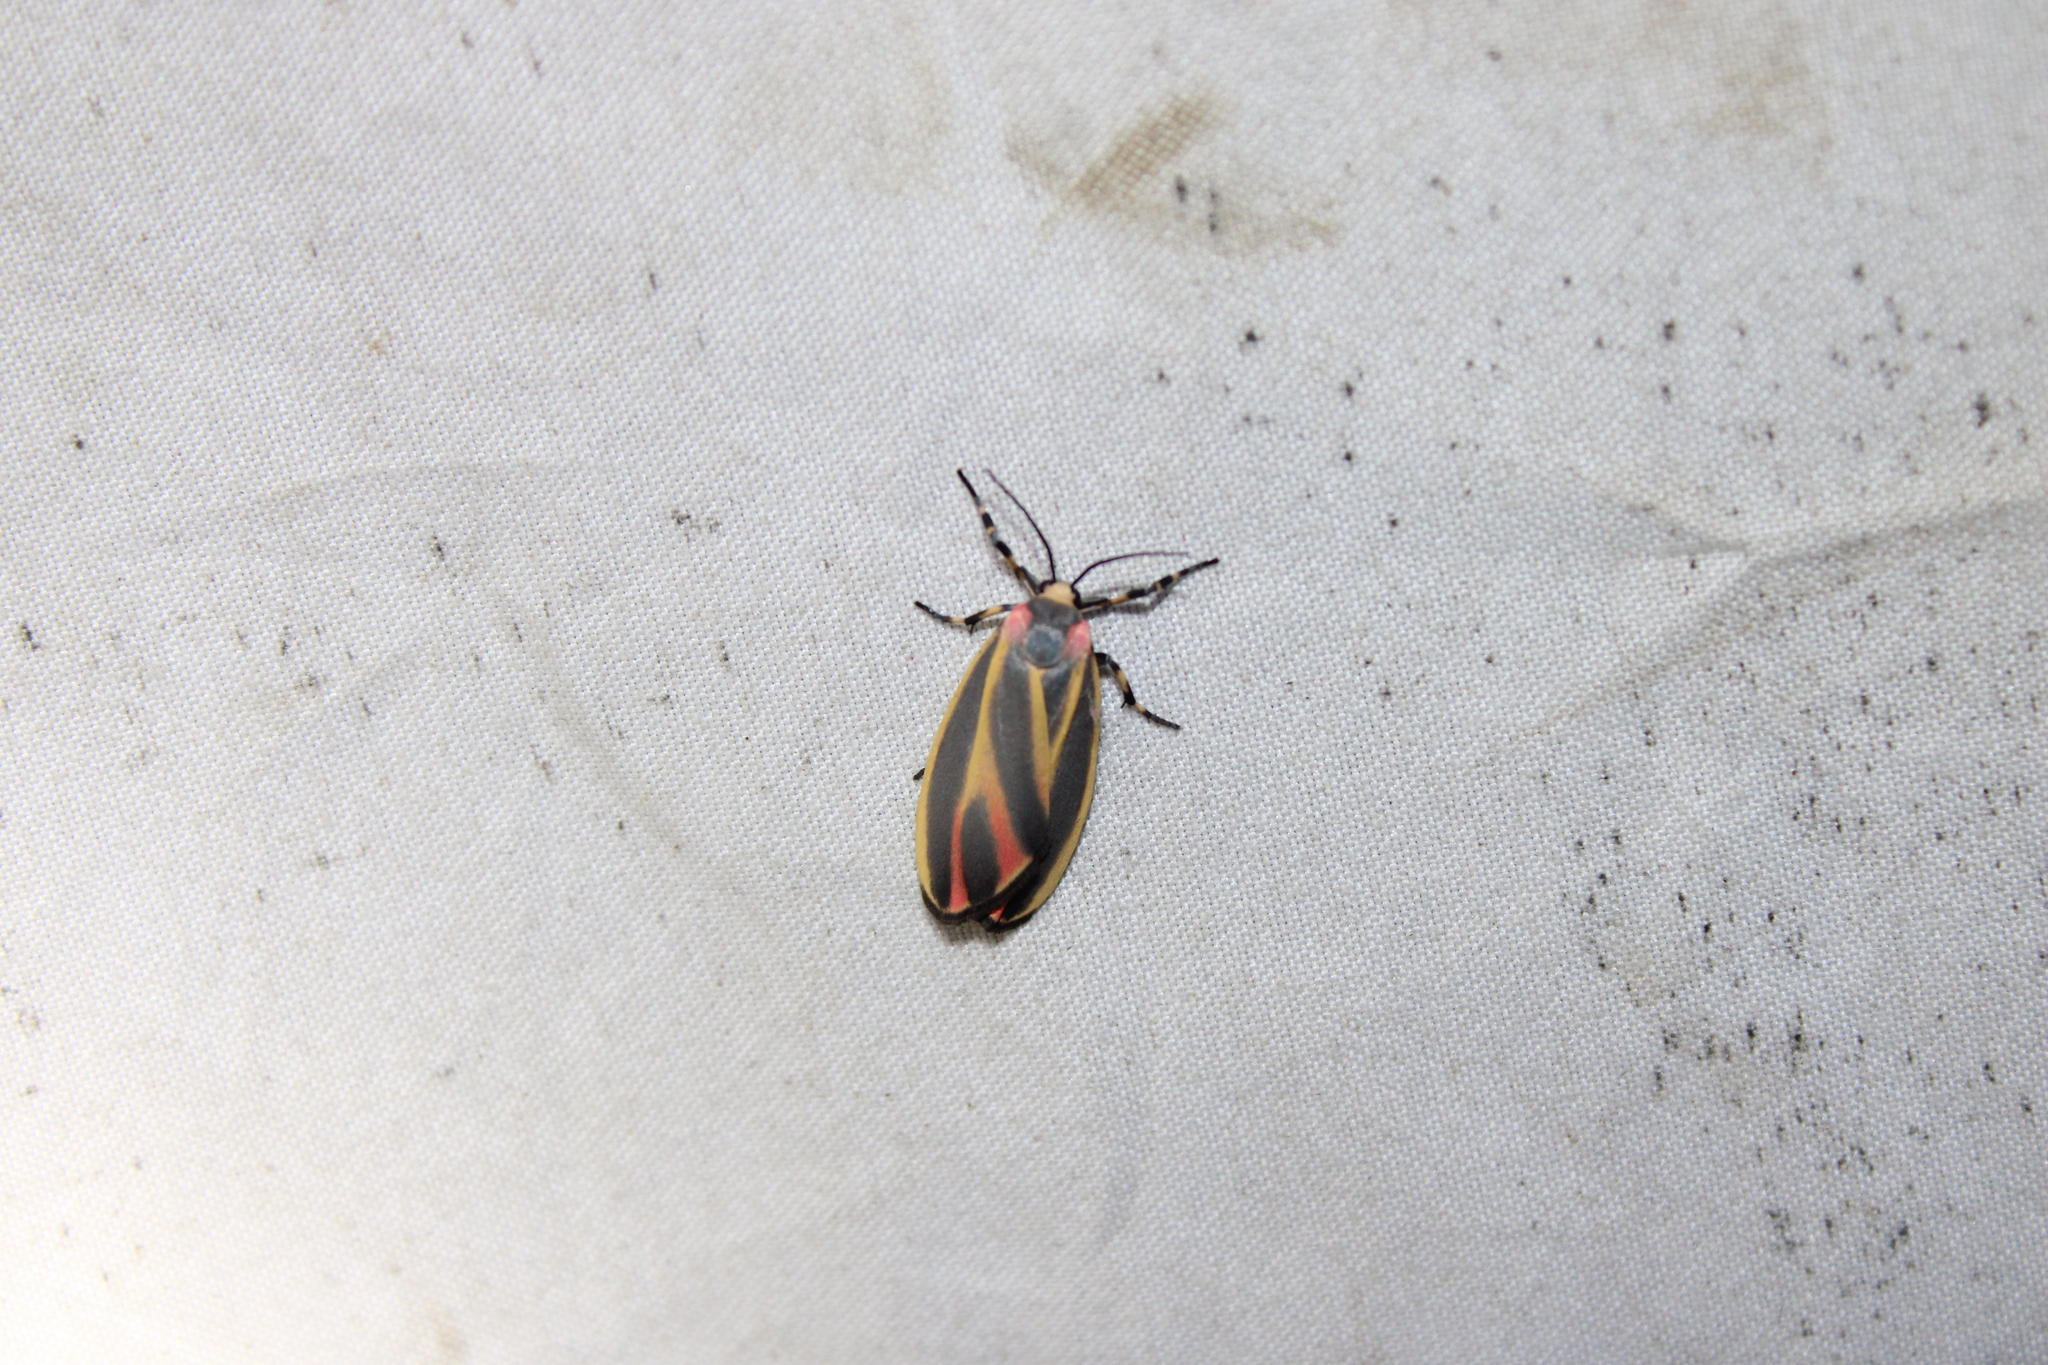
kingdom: Animalia
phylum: Arthropoda
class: Insecta
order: Lepidoptera
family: Erebidae
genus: Hypoprepia
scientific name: Hypoprepia fucosa
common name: Painted lichen moth
